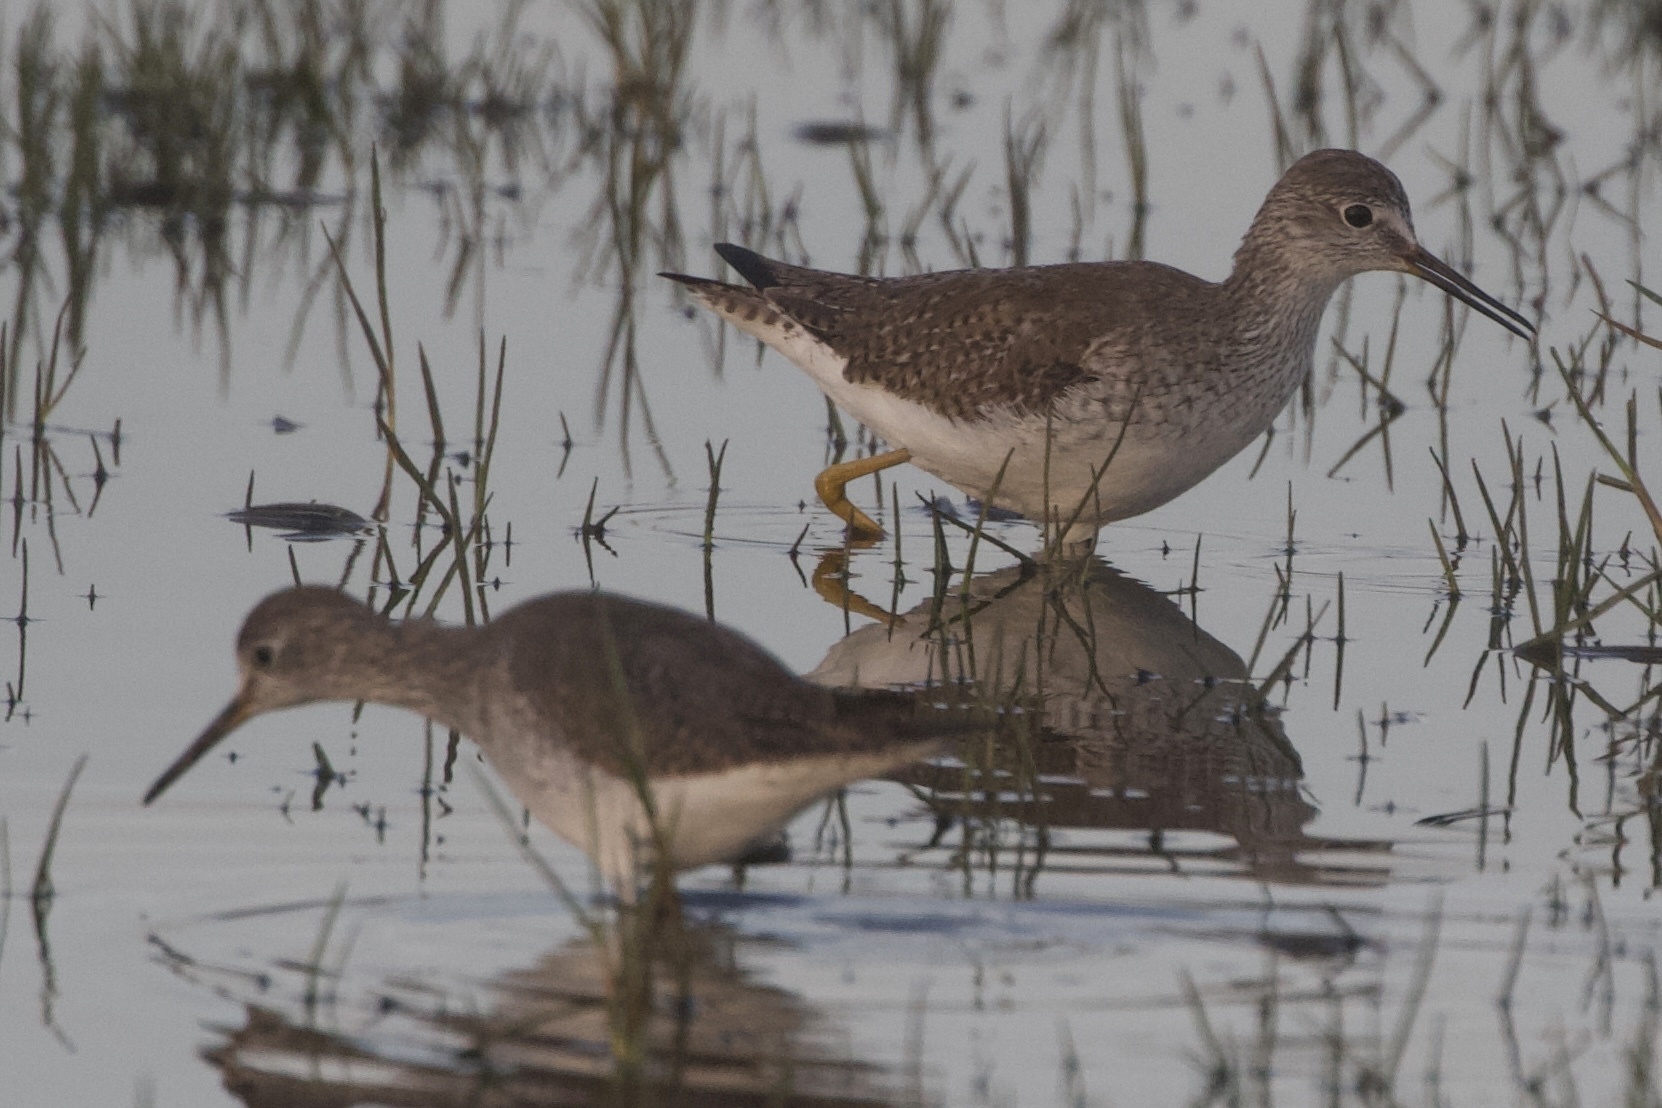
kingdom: Animalia
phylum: Chordata
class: Aves
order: Charadriiformes
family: Scolopacidae
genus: Tringa
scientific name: Tringa flavipes
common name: Lesser yellowlegs
